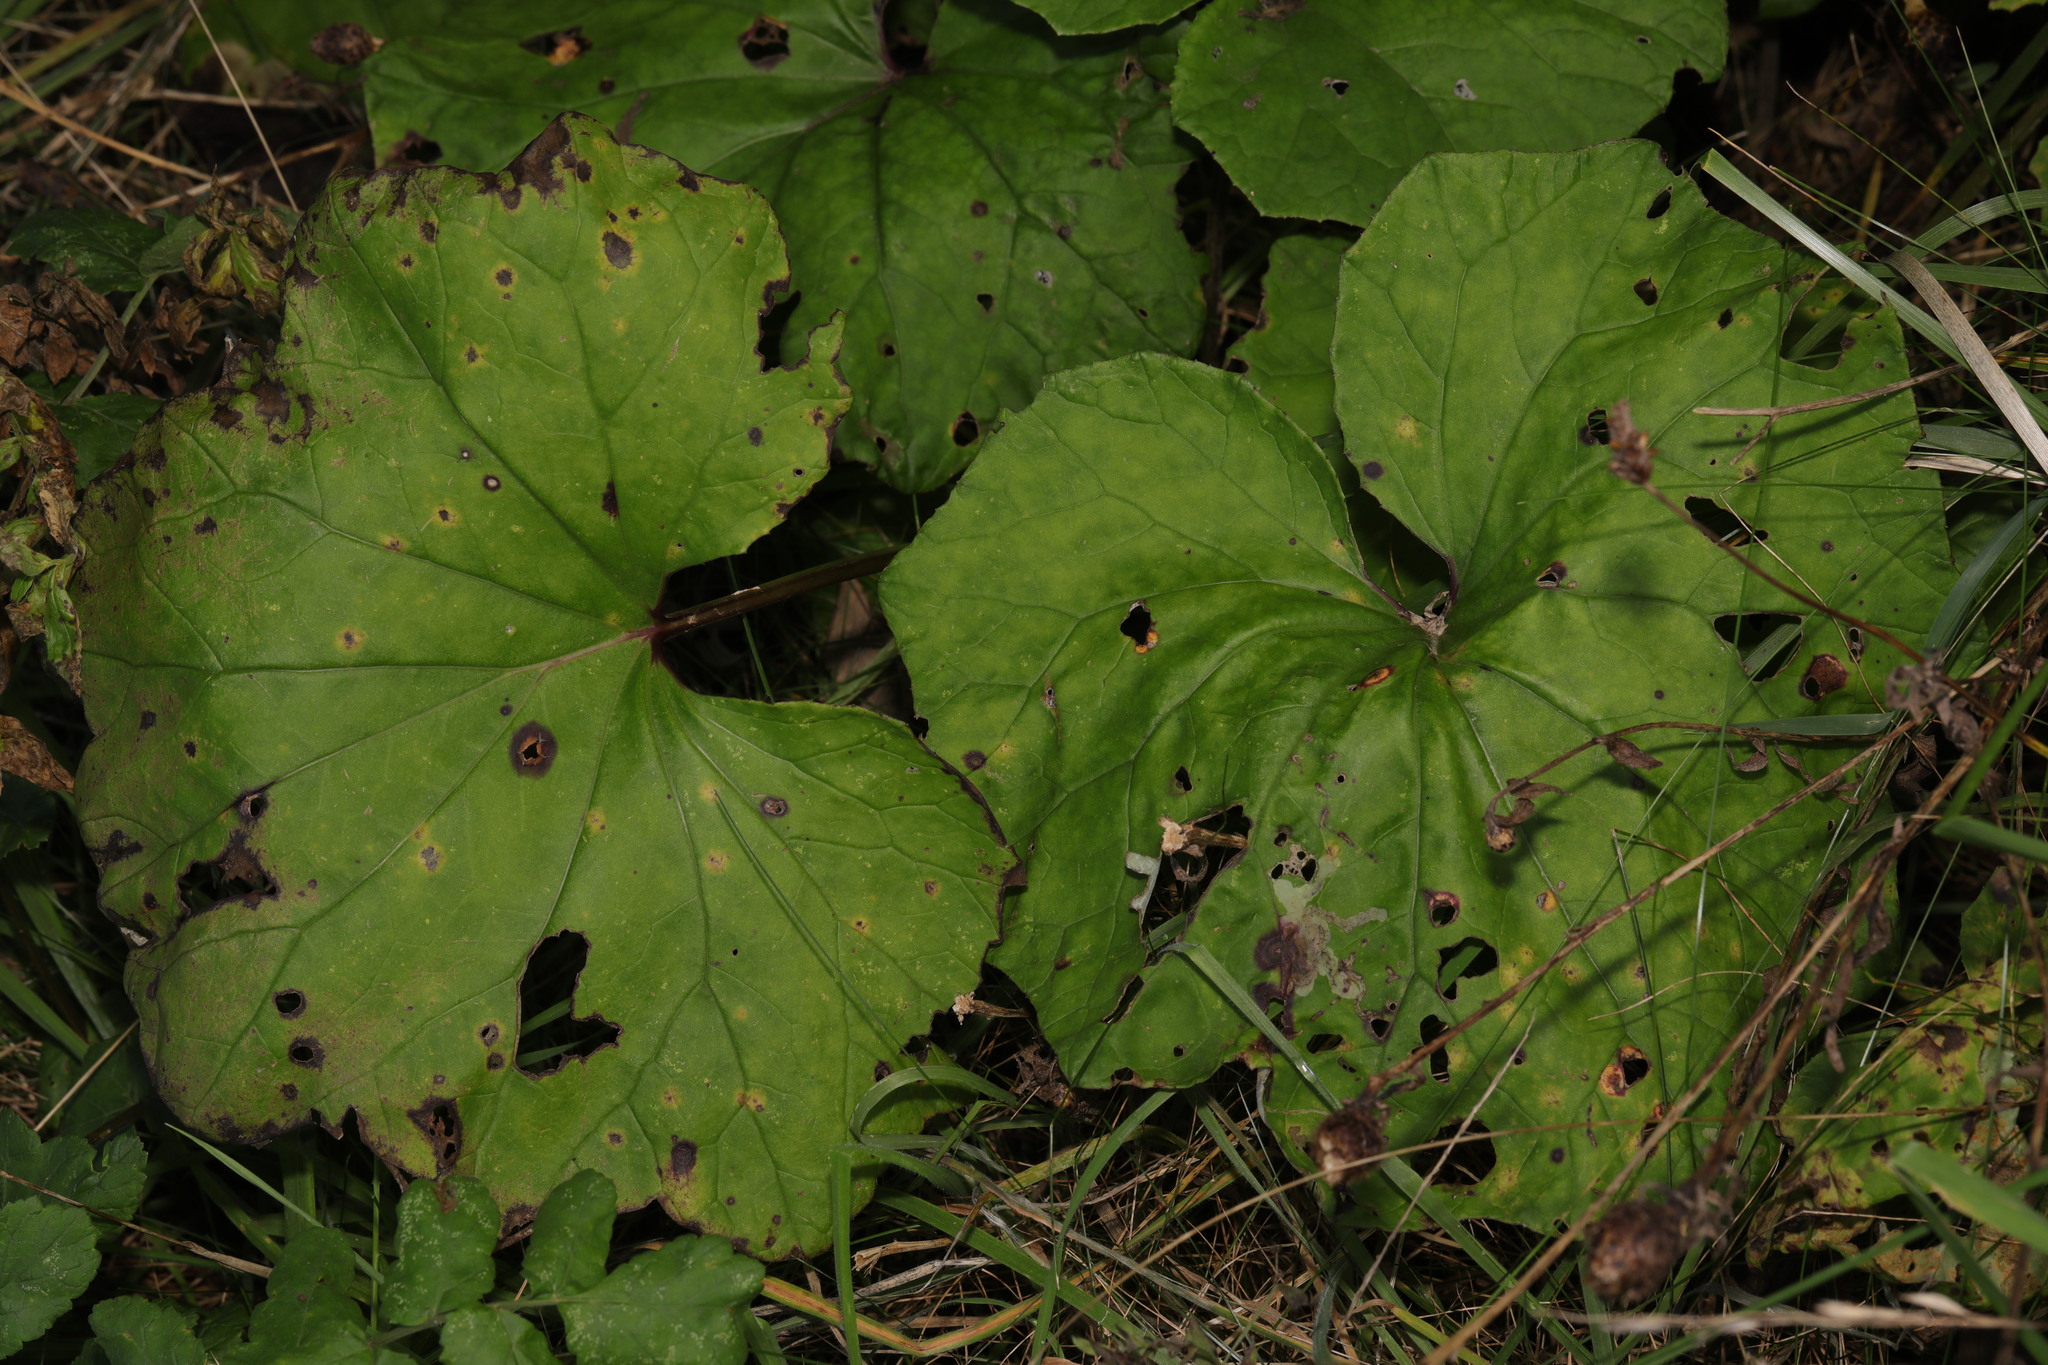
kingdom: Plantae
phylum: Tracheophyta
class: Magnoliopsida
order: Asterales
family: Asteraceae
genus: Tussilago
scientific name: Tussilago farfara
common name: Coltsfoot
